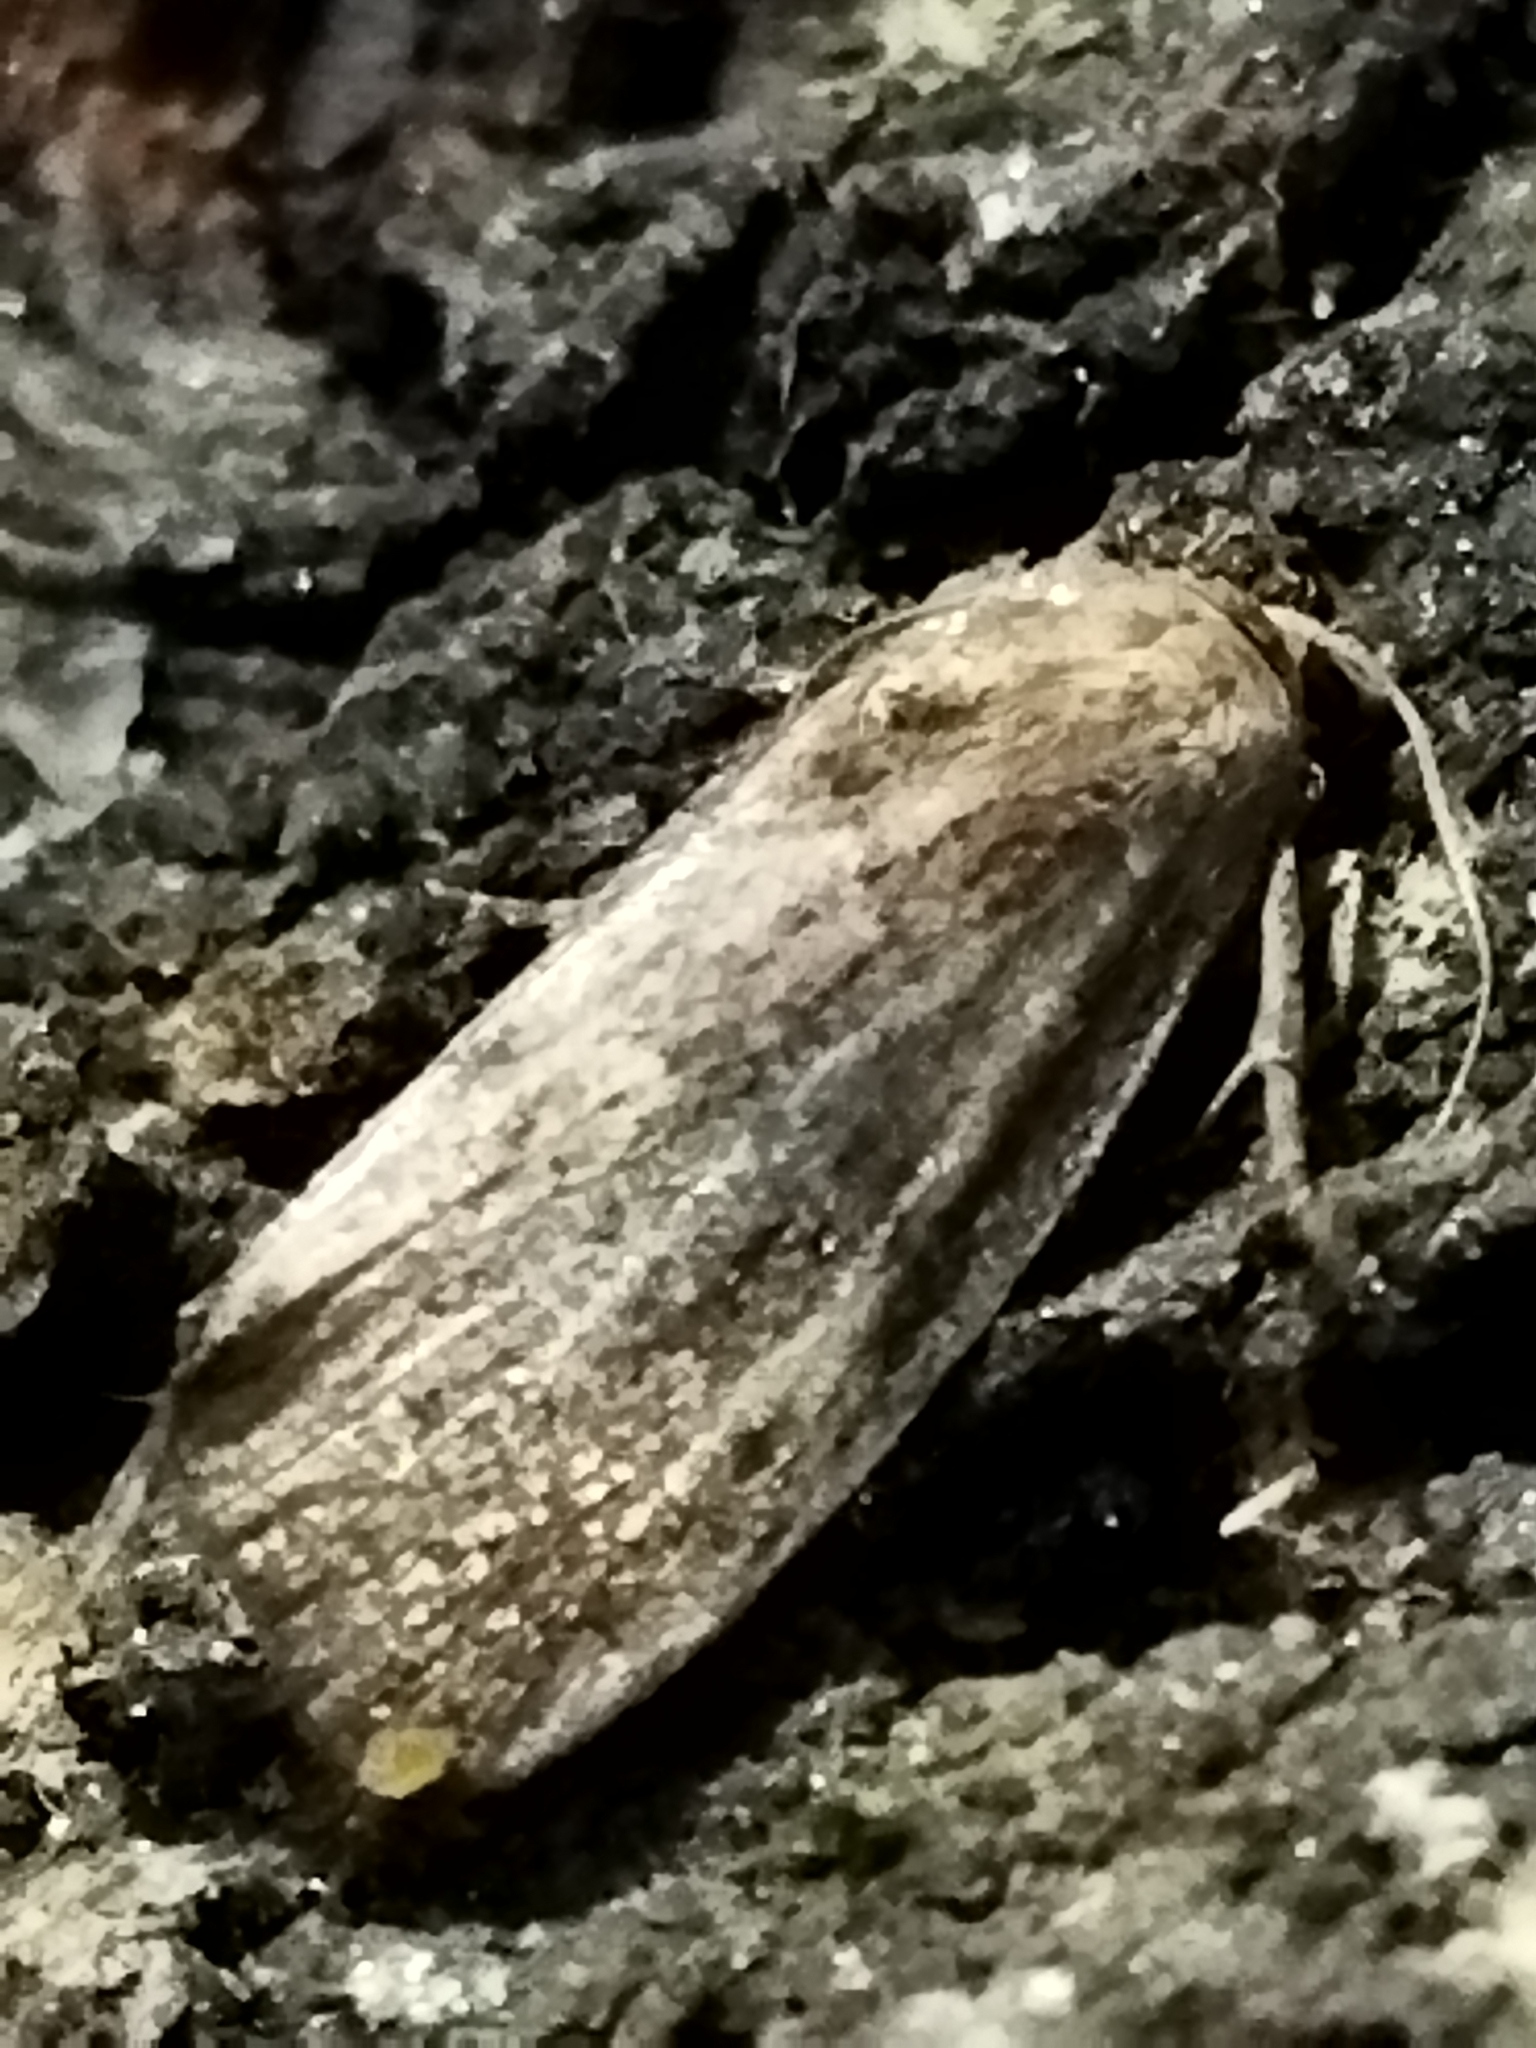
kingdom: Animalia
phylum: Arthropoda
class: Insecta
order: Lepidoptera
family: Pyralidae
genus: Galleria
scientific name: Galleria mellonella
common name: Greater wax moth
